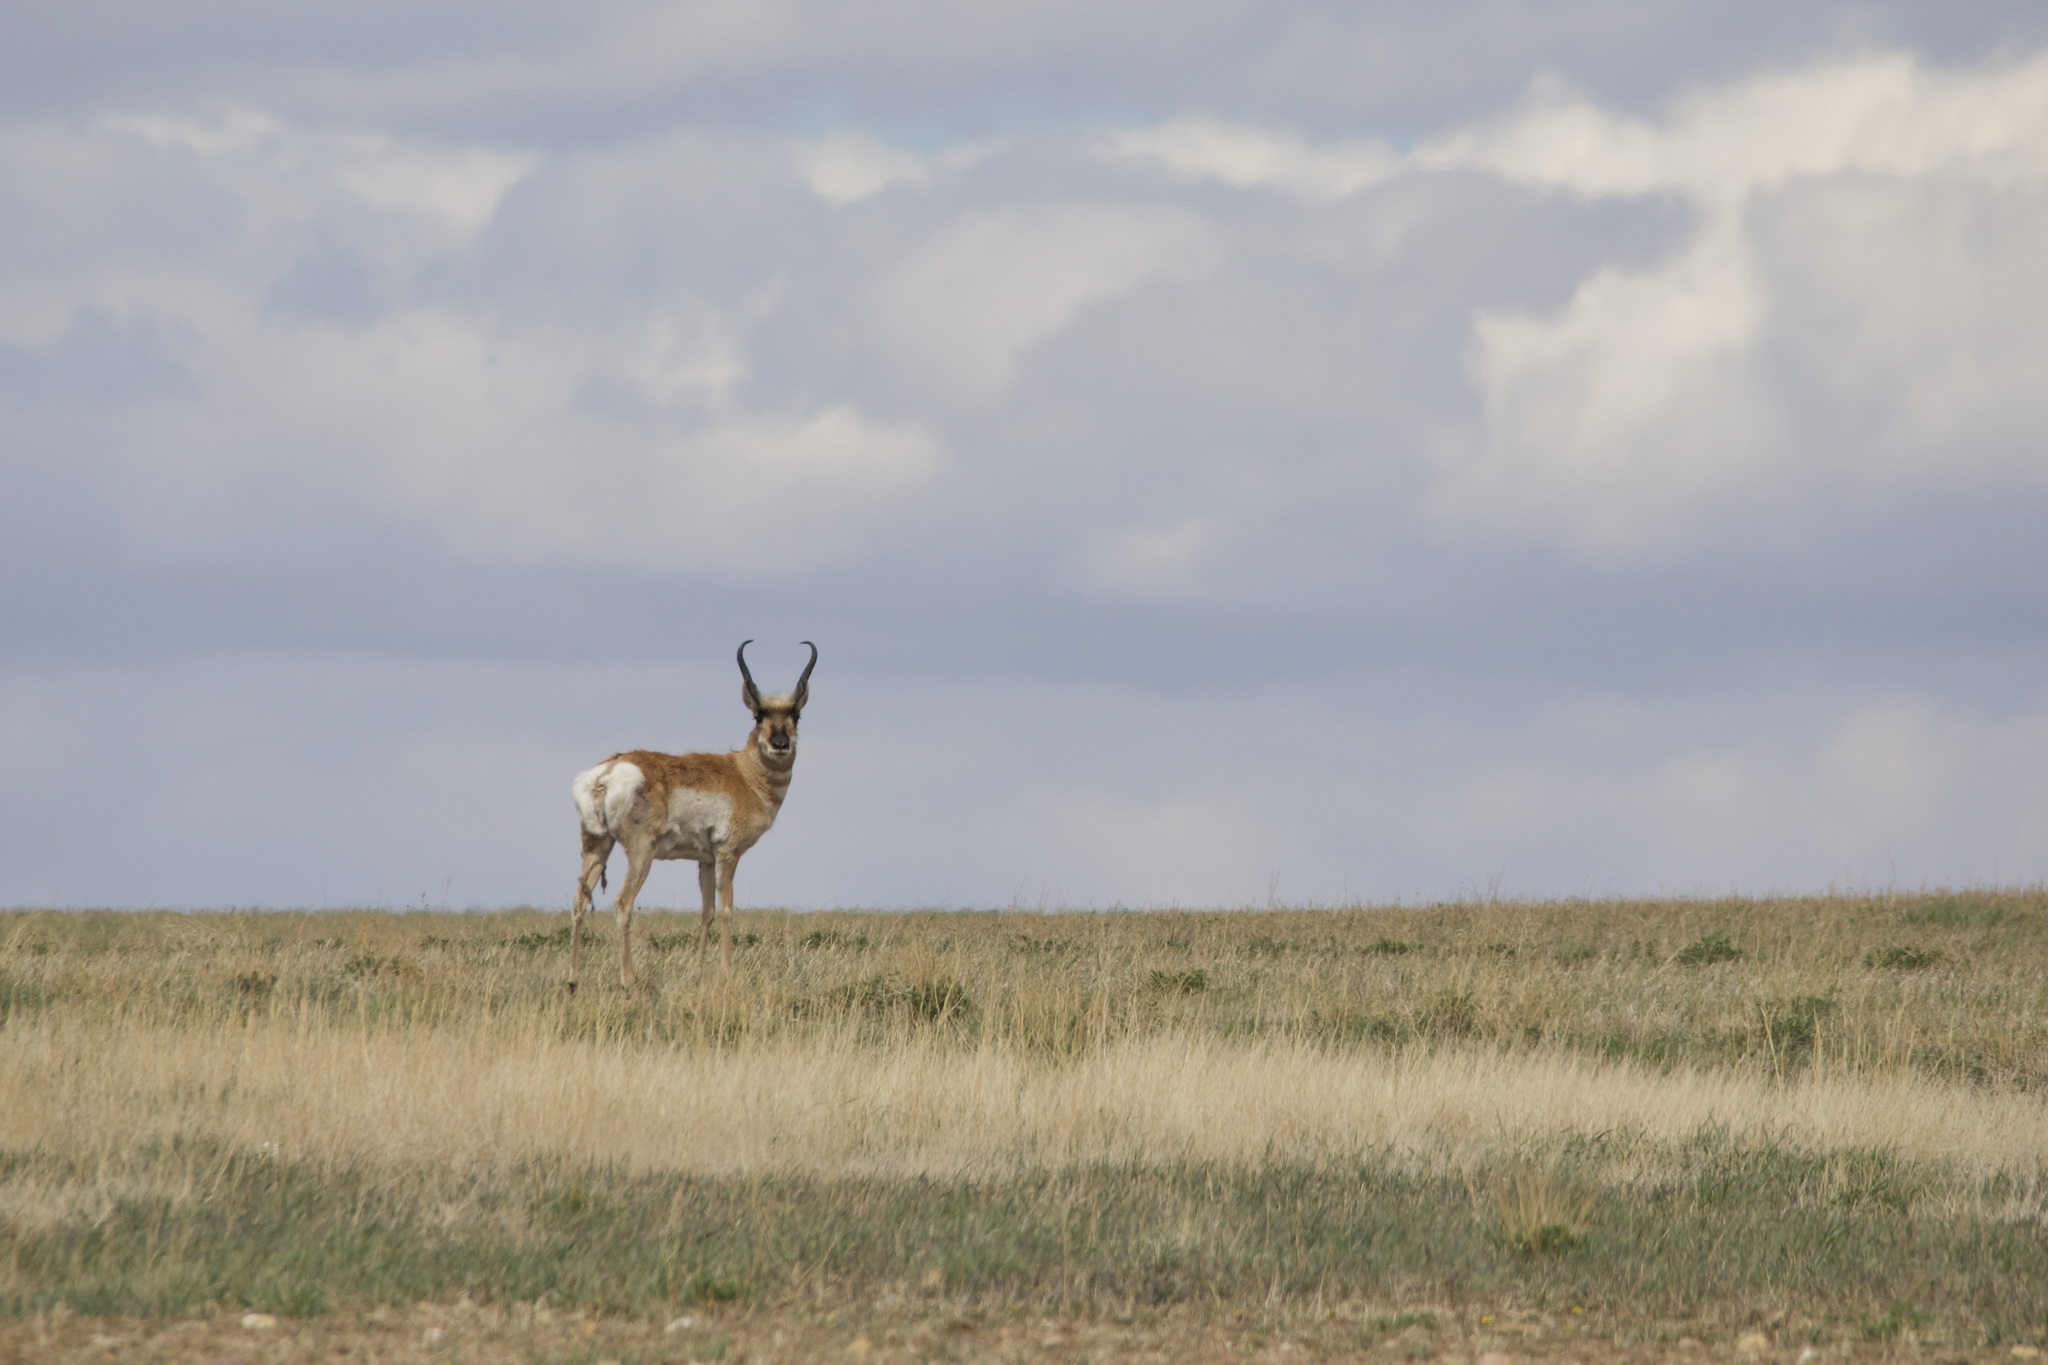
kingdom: Animalia
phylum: Chordata
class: Mammalia
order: Artiodactyla
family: Antilocapridae
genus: Antilocapra
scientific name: Antilocapra americana
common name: Pronghorn
